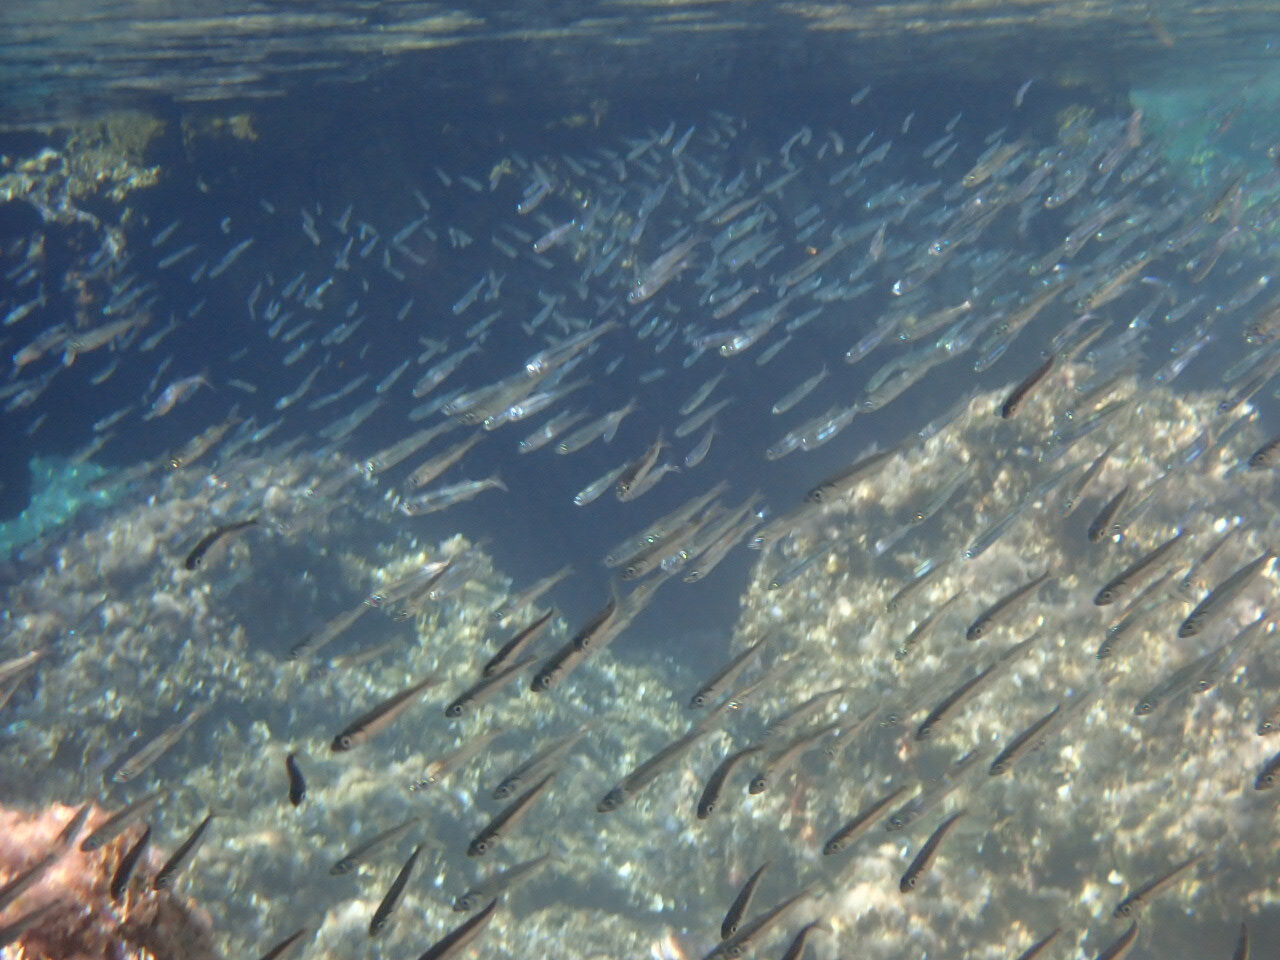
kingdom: Animalia
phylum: Chordata
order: Atheriniformes
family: Atherinidae
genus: Atherina
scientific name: Atherina
